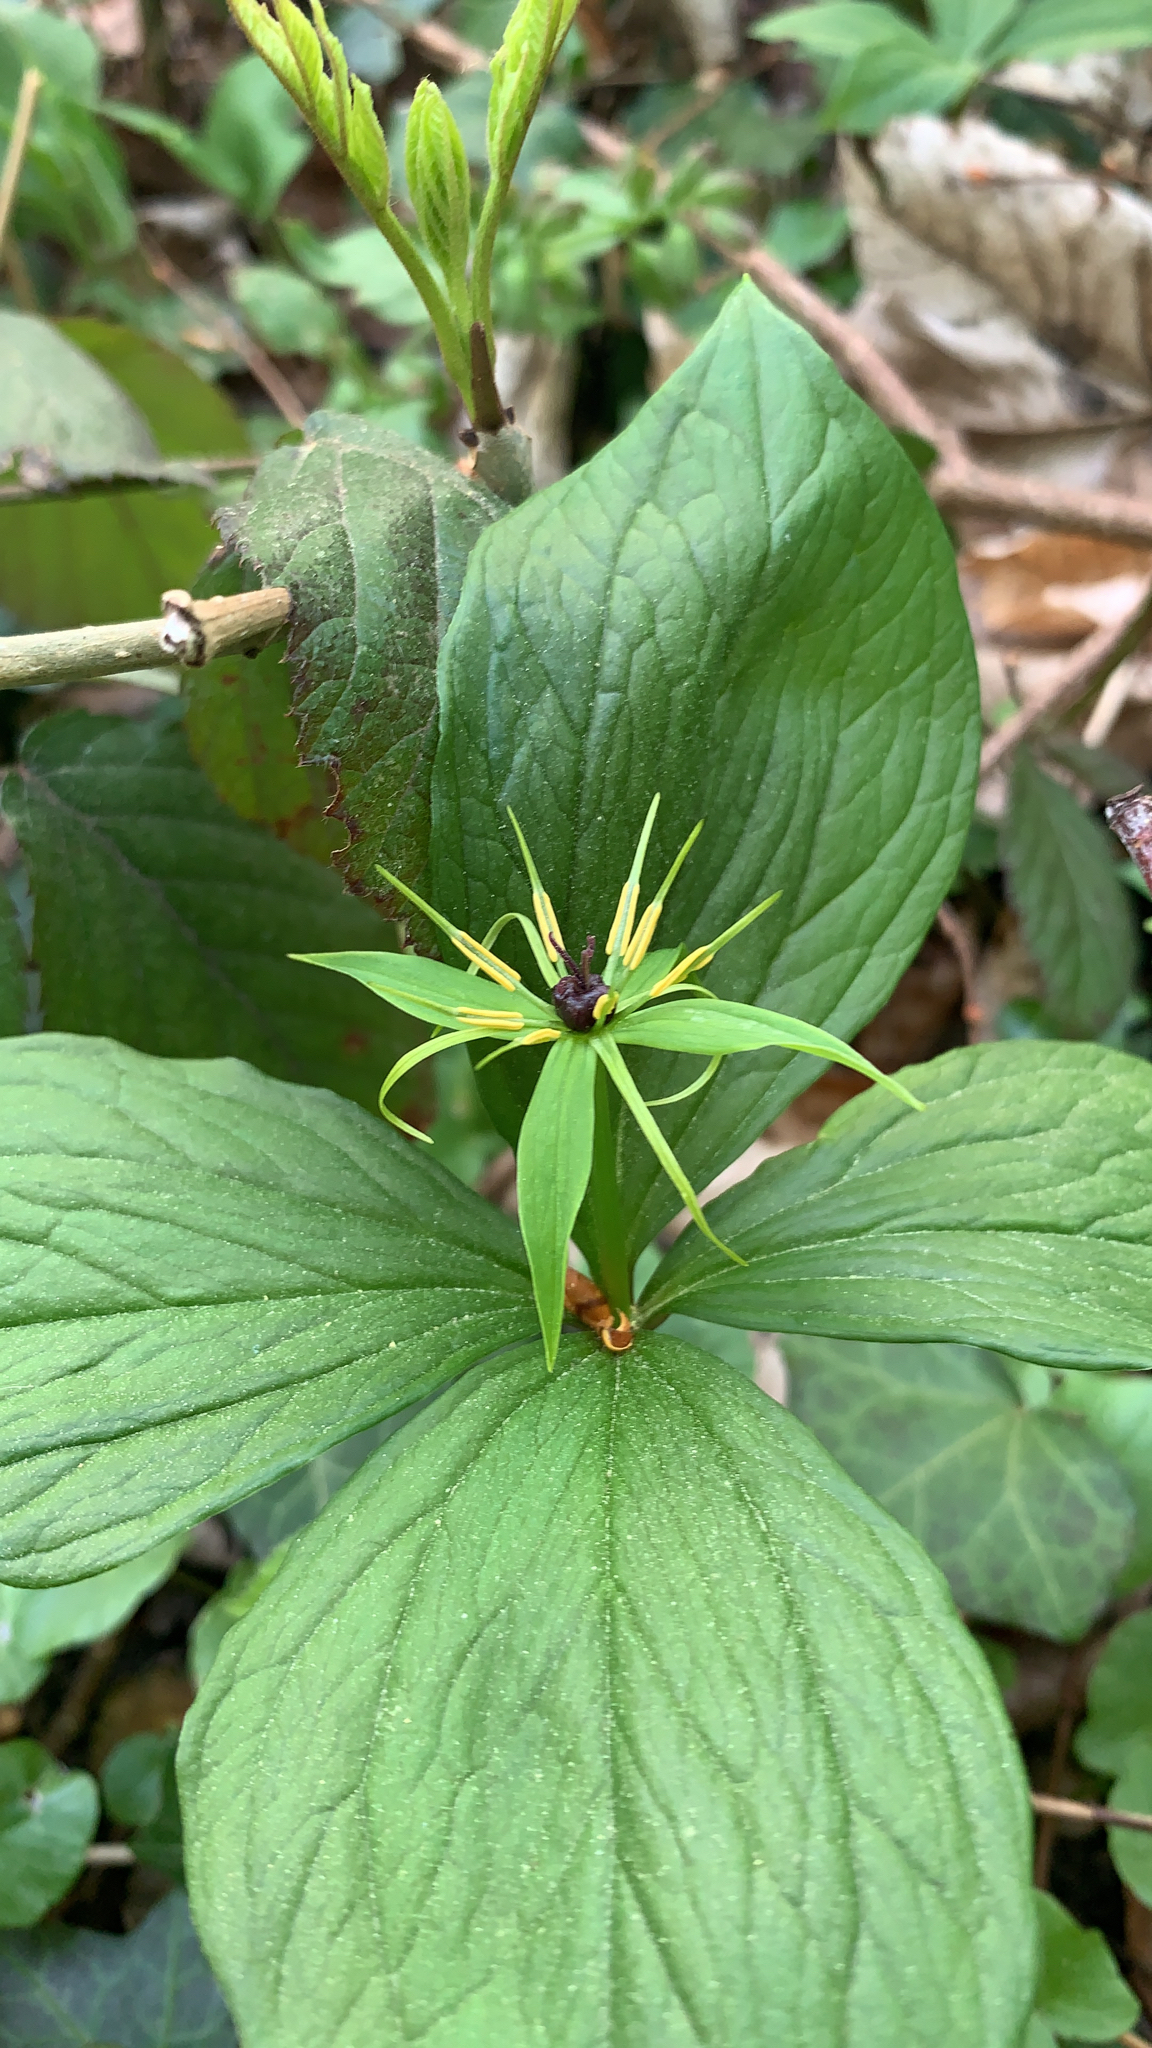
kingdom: Plantae
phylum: Tracheophyta
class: Liliopsida
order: Liliales
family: Melanthiaceae
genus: Paris
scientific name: Paris quadrifolia
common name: Herb-paris
